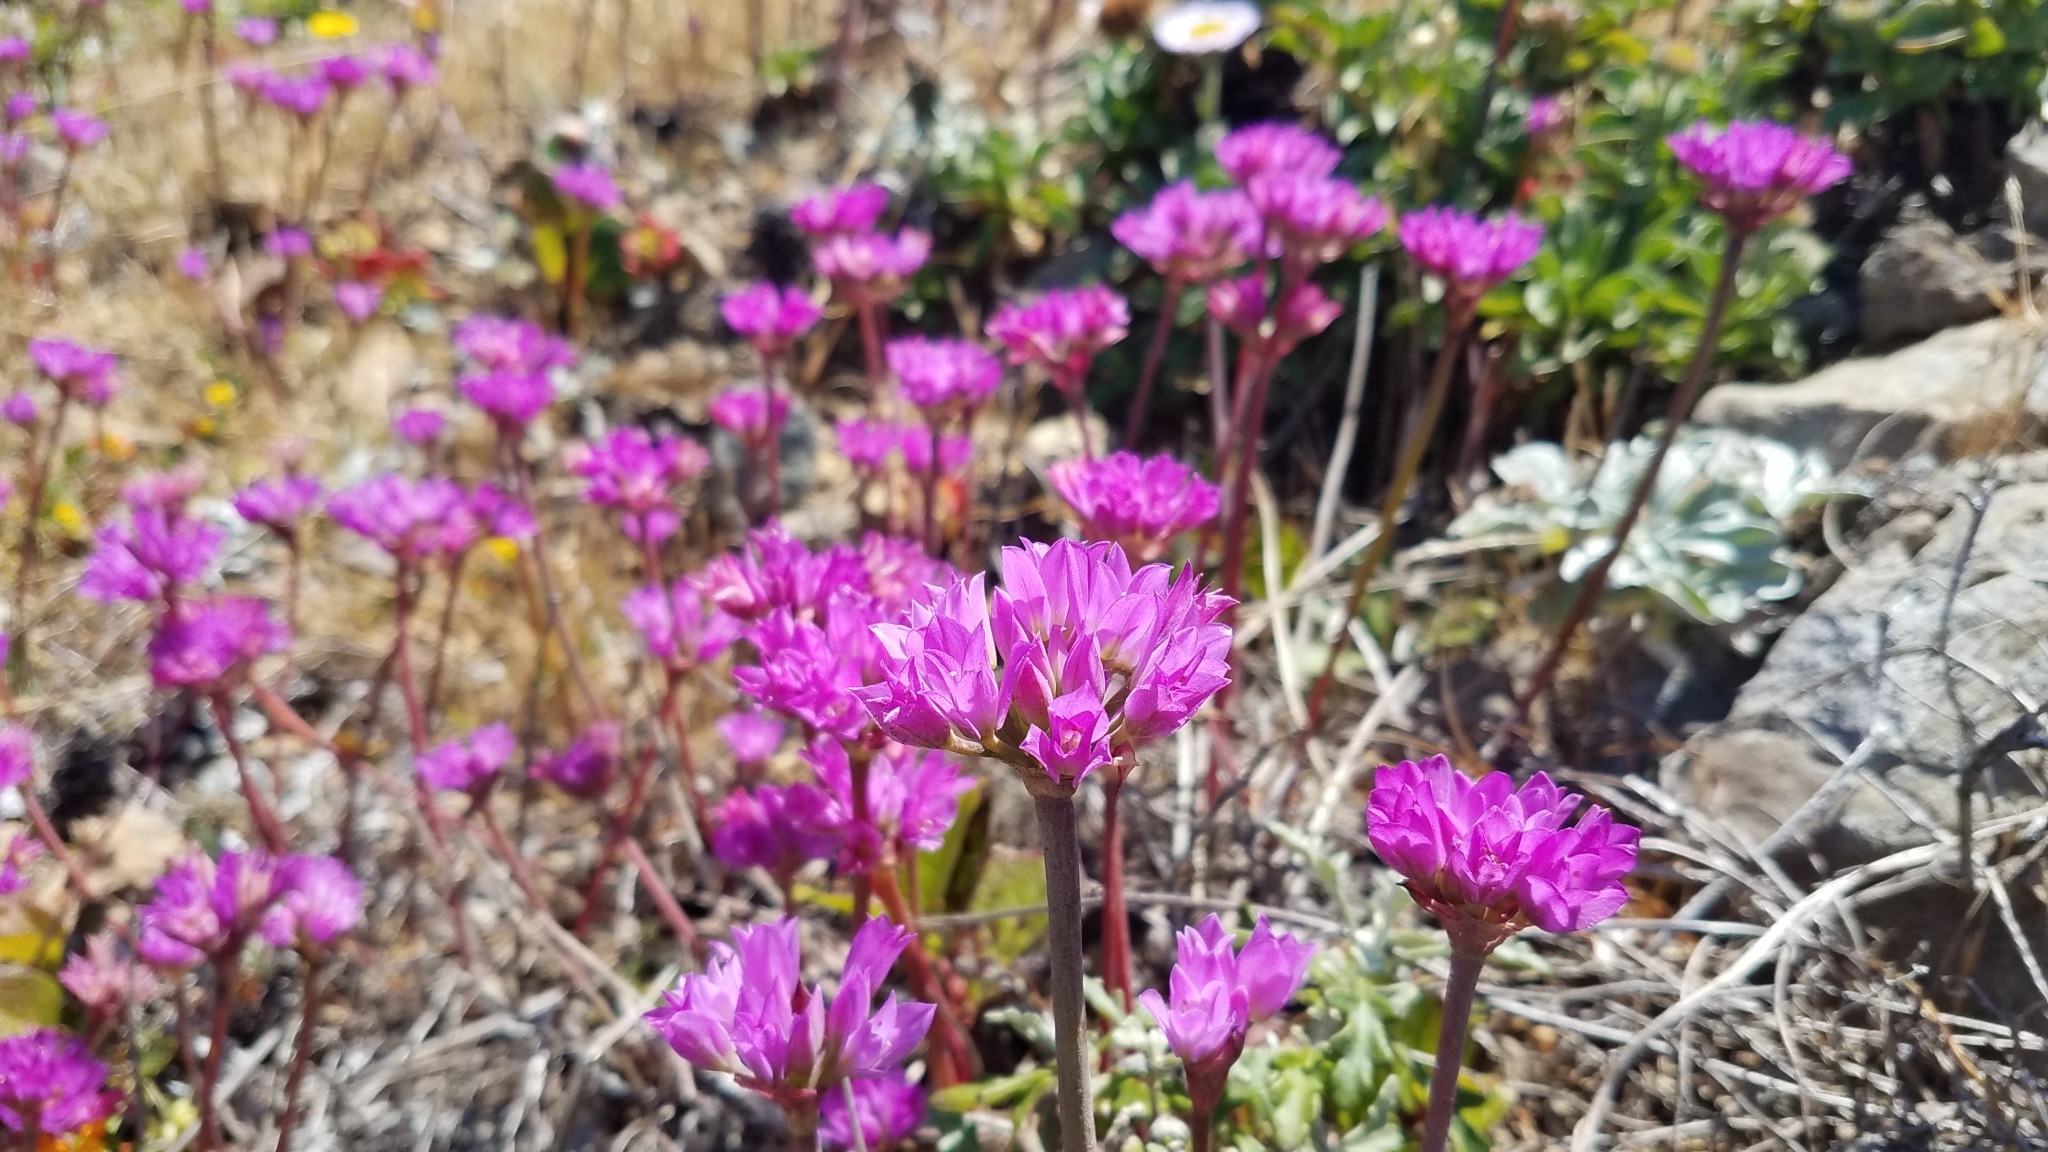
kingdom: Plantae
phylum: Tracheophyta
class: Liliopsida
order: Asparagales
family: Amaryllidaceae
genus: Allium
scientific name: Allium dichlamydeum
